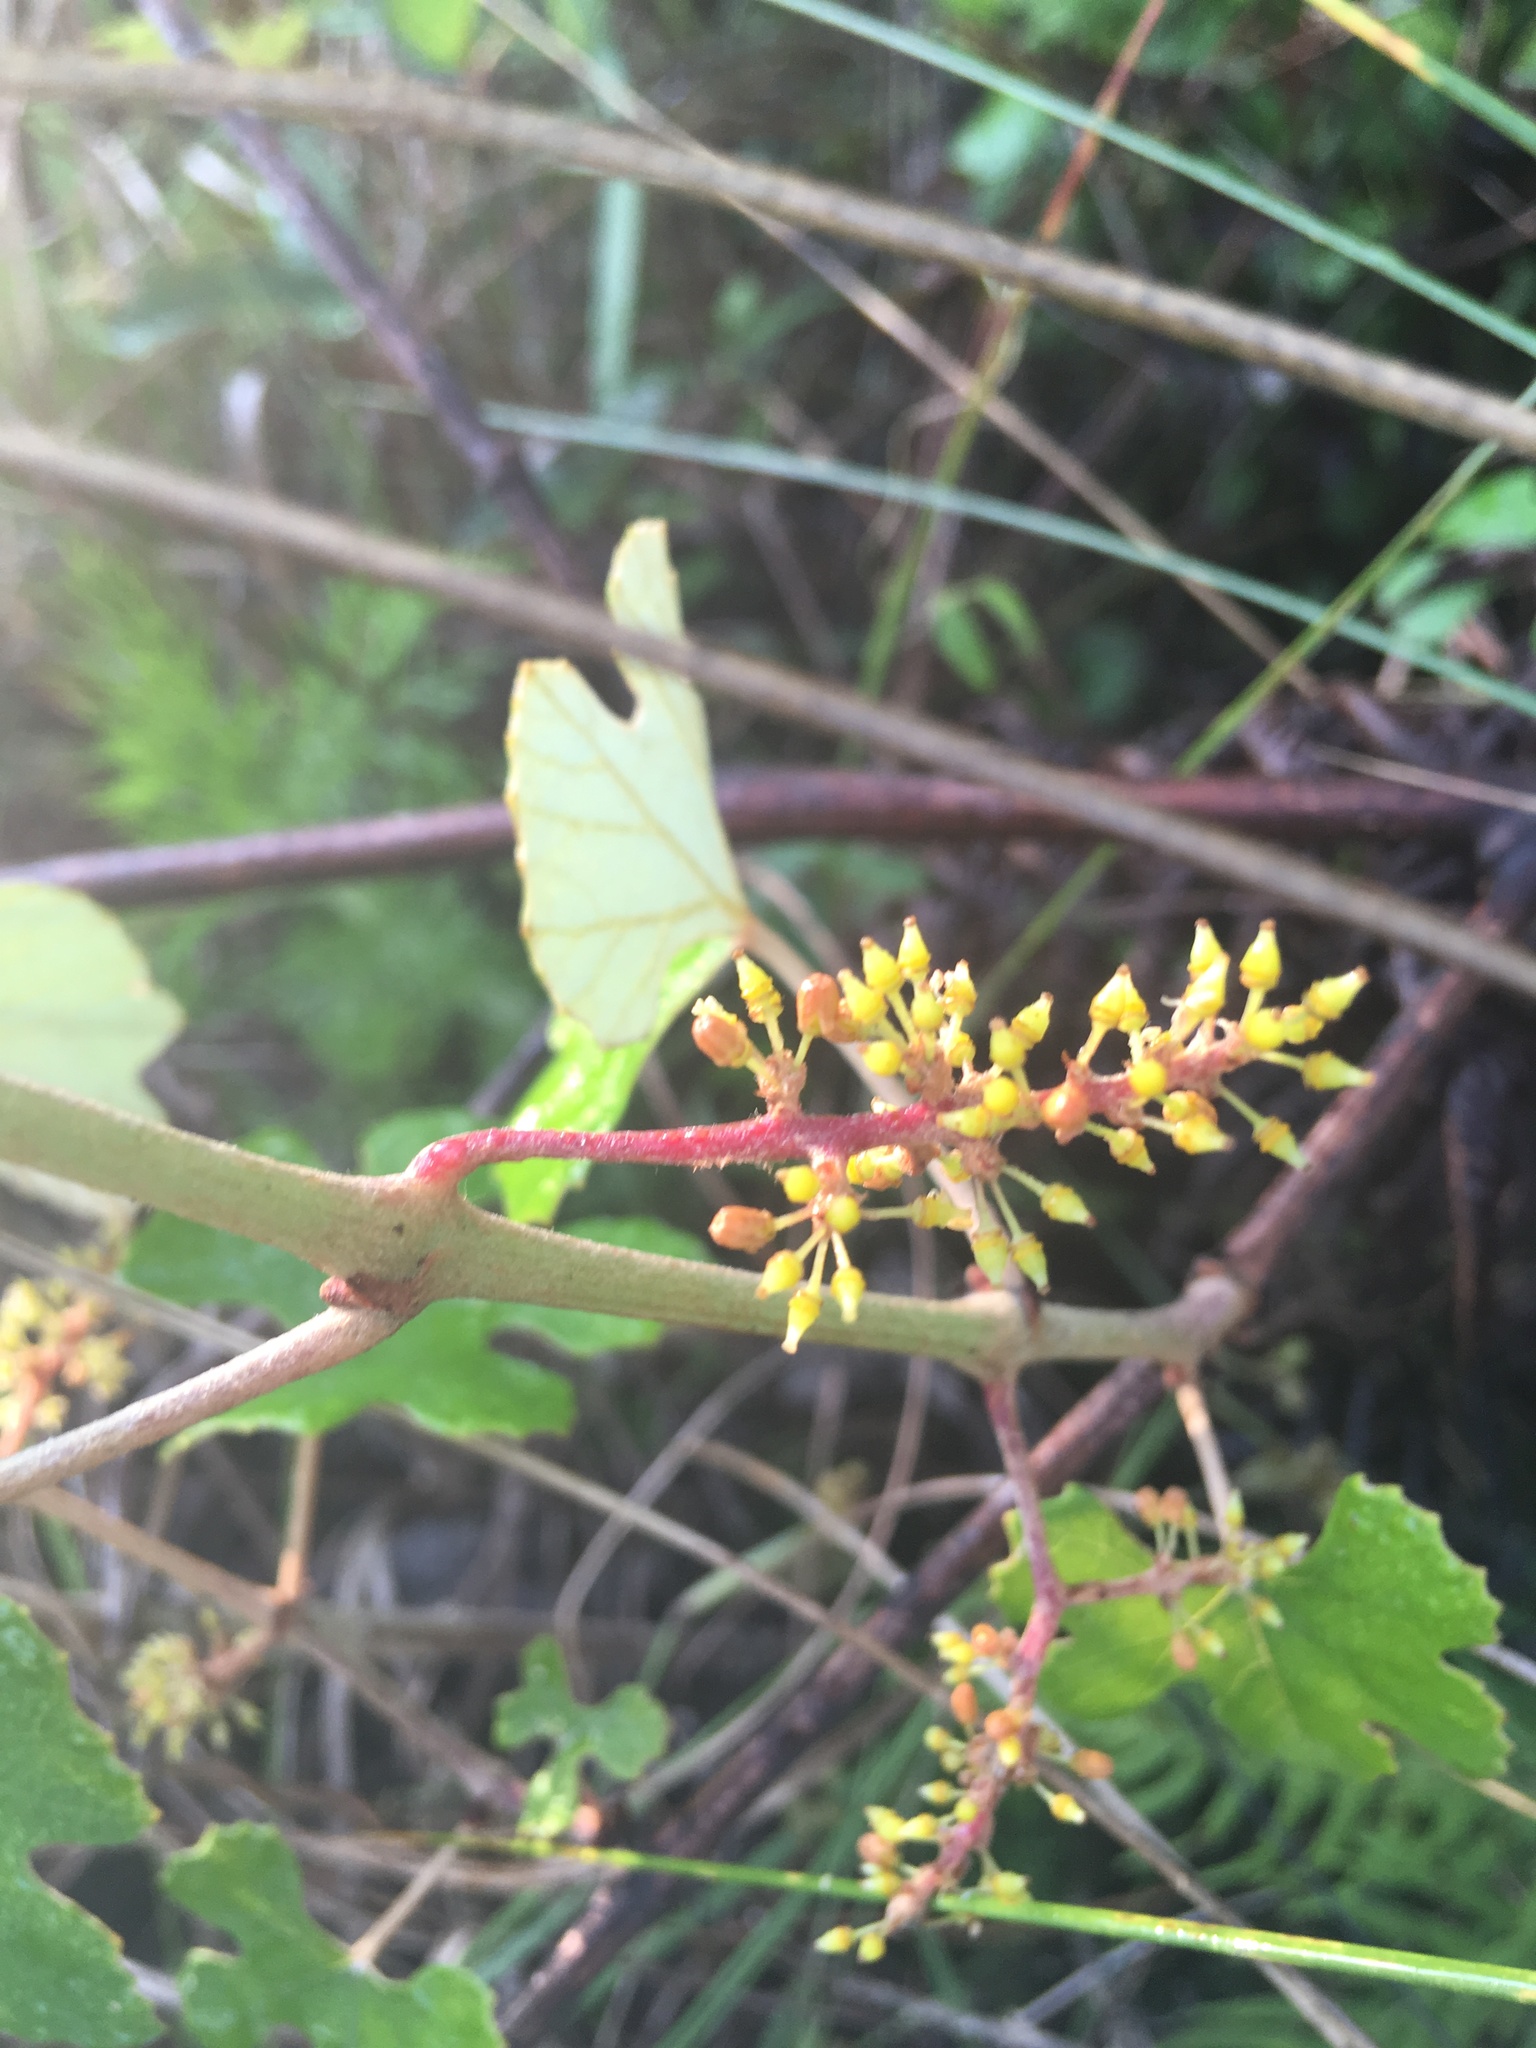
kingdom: Plantae
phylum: Tracheophyta
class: Magnoliopsida
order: Vitales
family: Vitaceae
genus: Vitis
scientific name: Vitis shuttleworthii
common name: Caloosa grape
